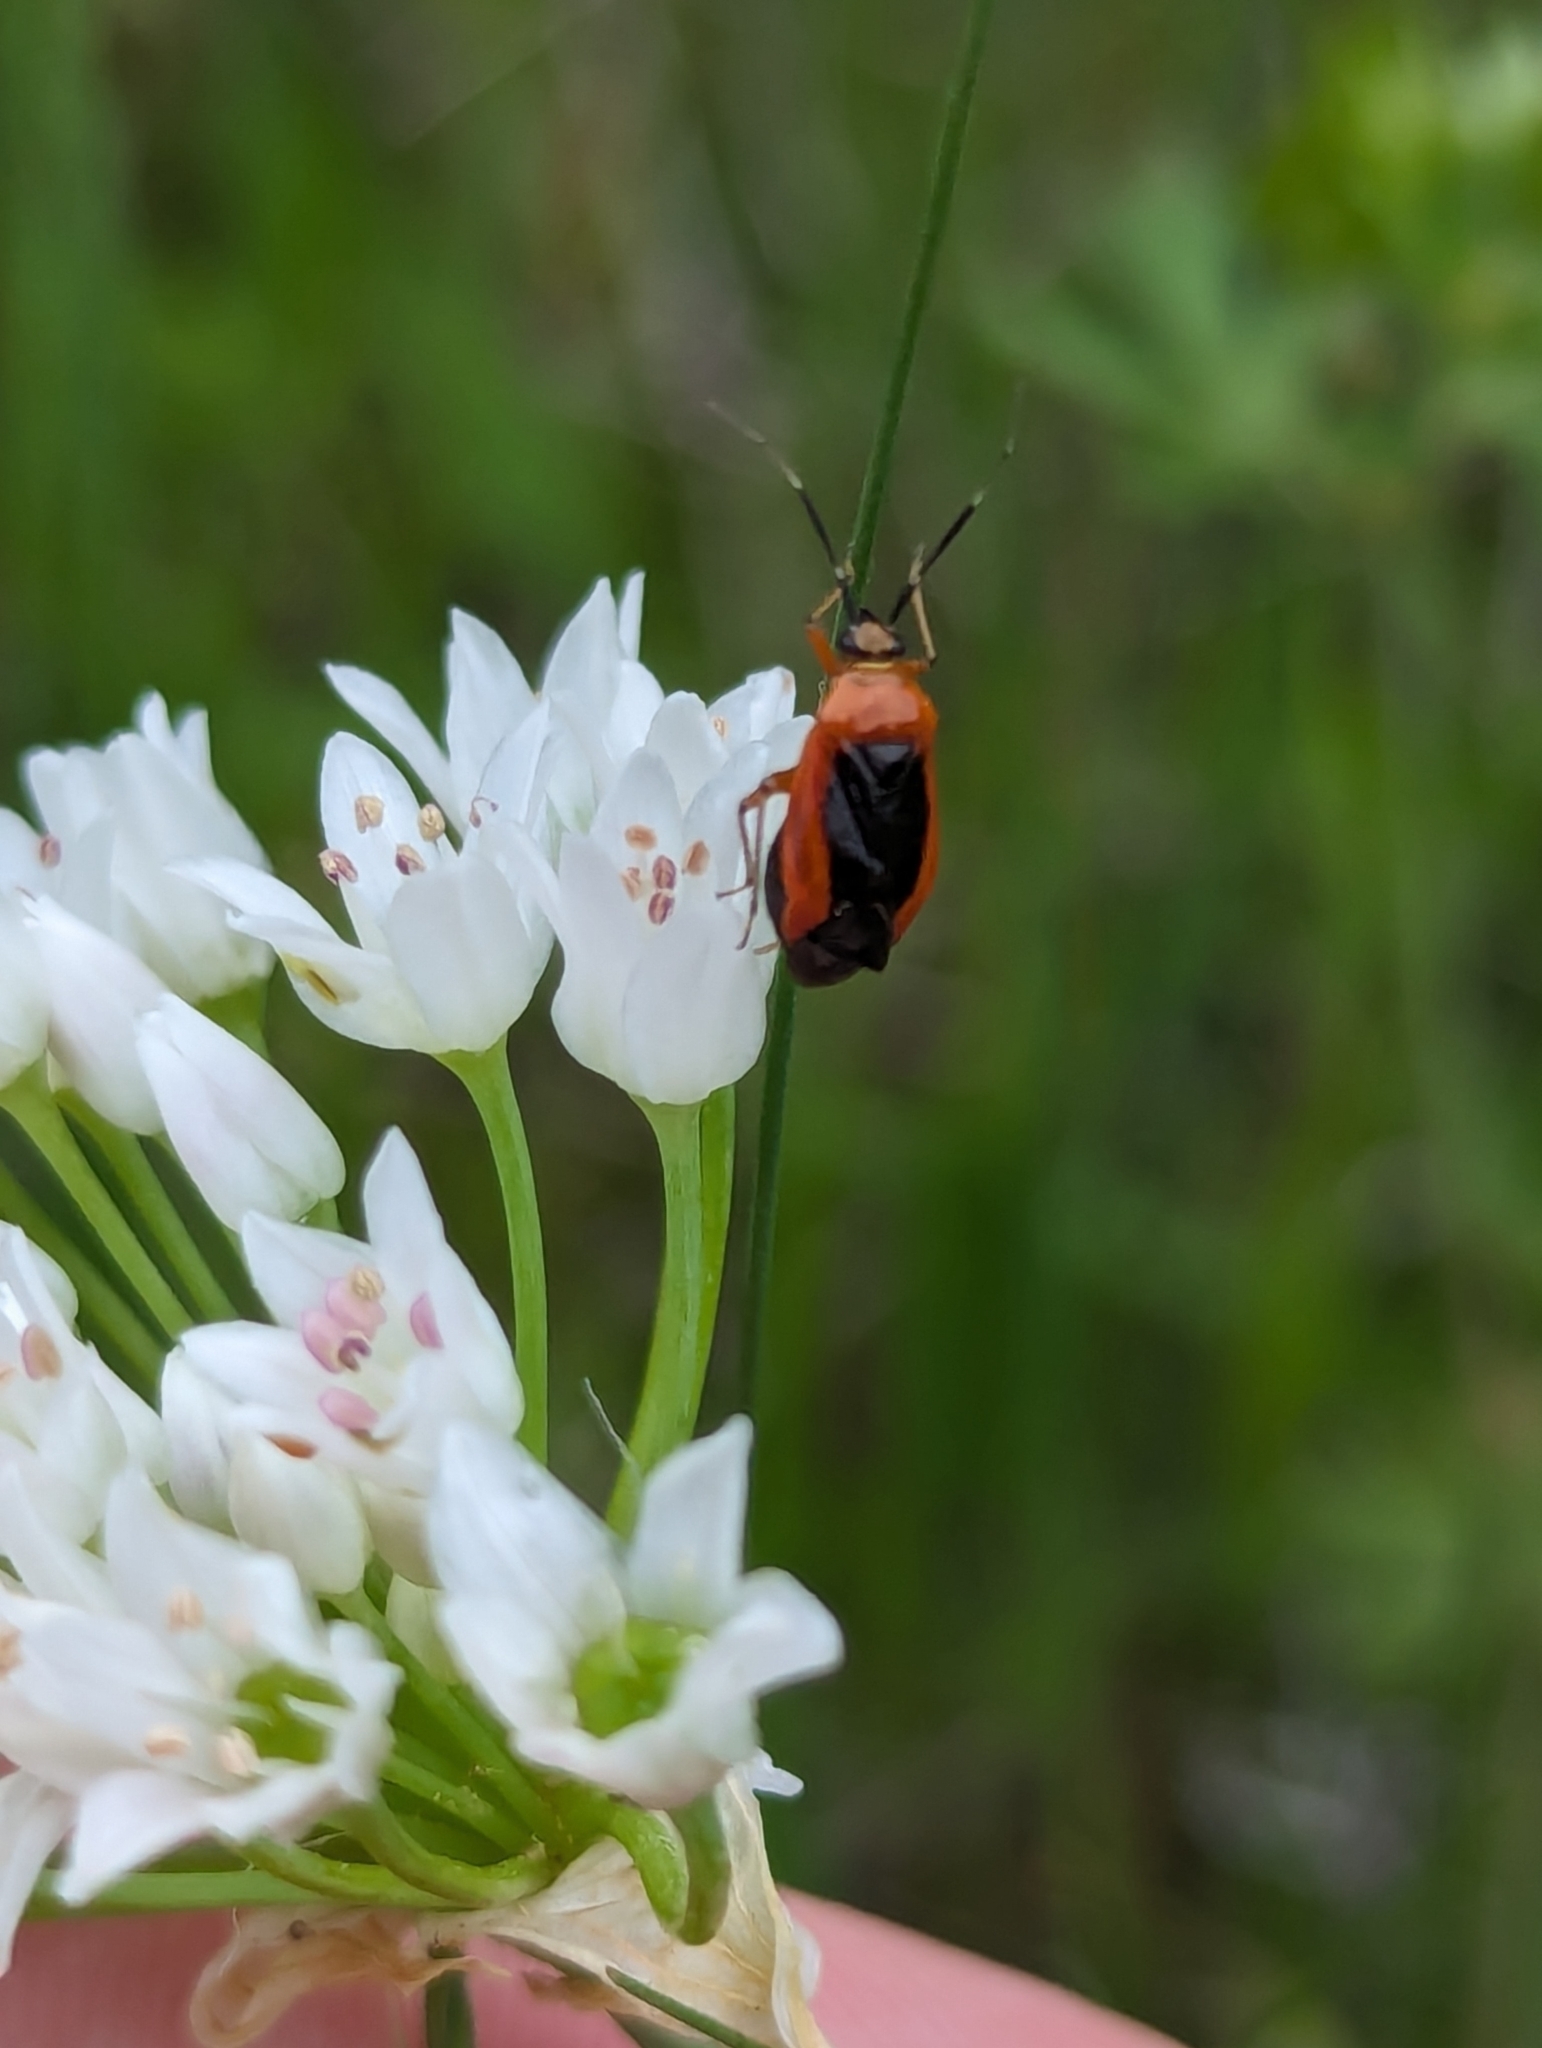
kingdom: Animalia
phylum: Arthropoda
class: Insecta
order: Hemiptera
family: Miridae
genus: Metriorrhynchomiris
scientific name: Metriorrhynchomiris dislocatus
